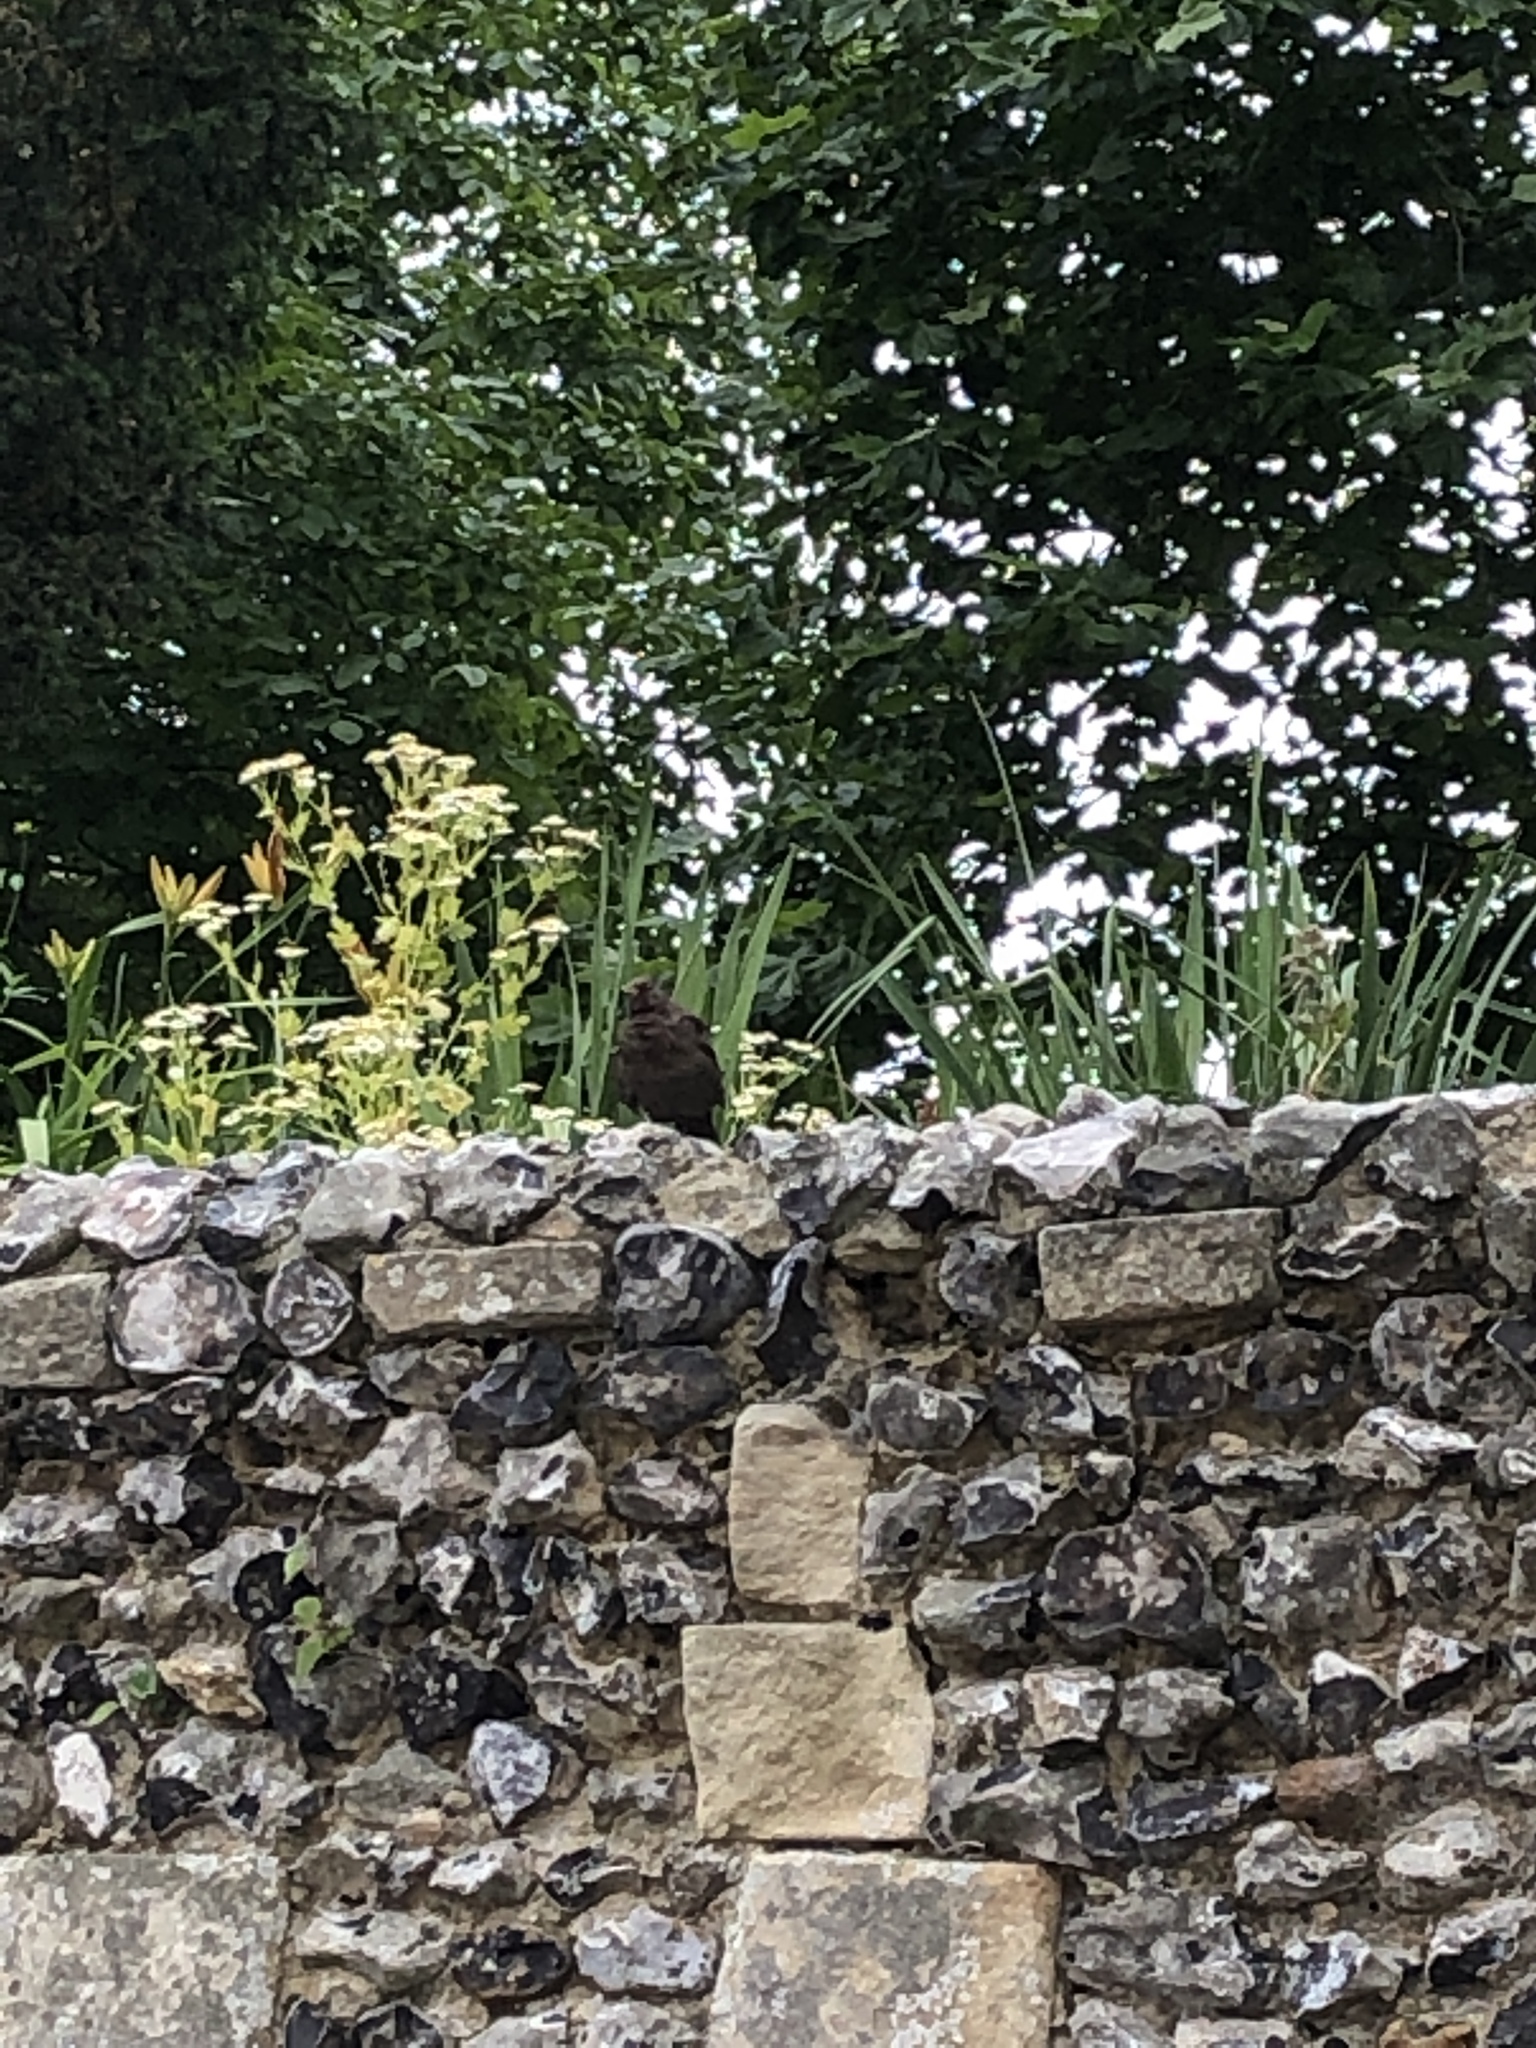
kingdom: Animalia
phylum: Chordata
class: Aves
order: Passeriformes
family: Turdidae
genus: Turdus
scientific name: Turdus merula
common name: Common blackbird
